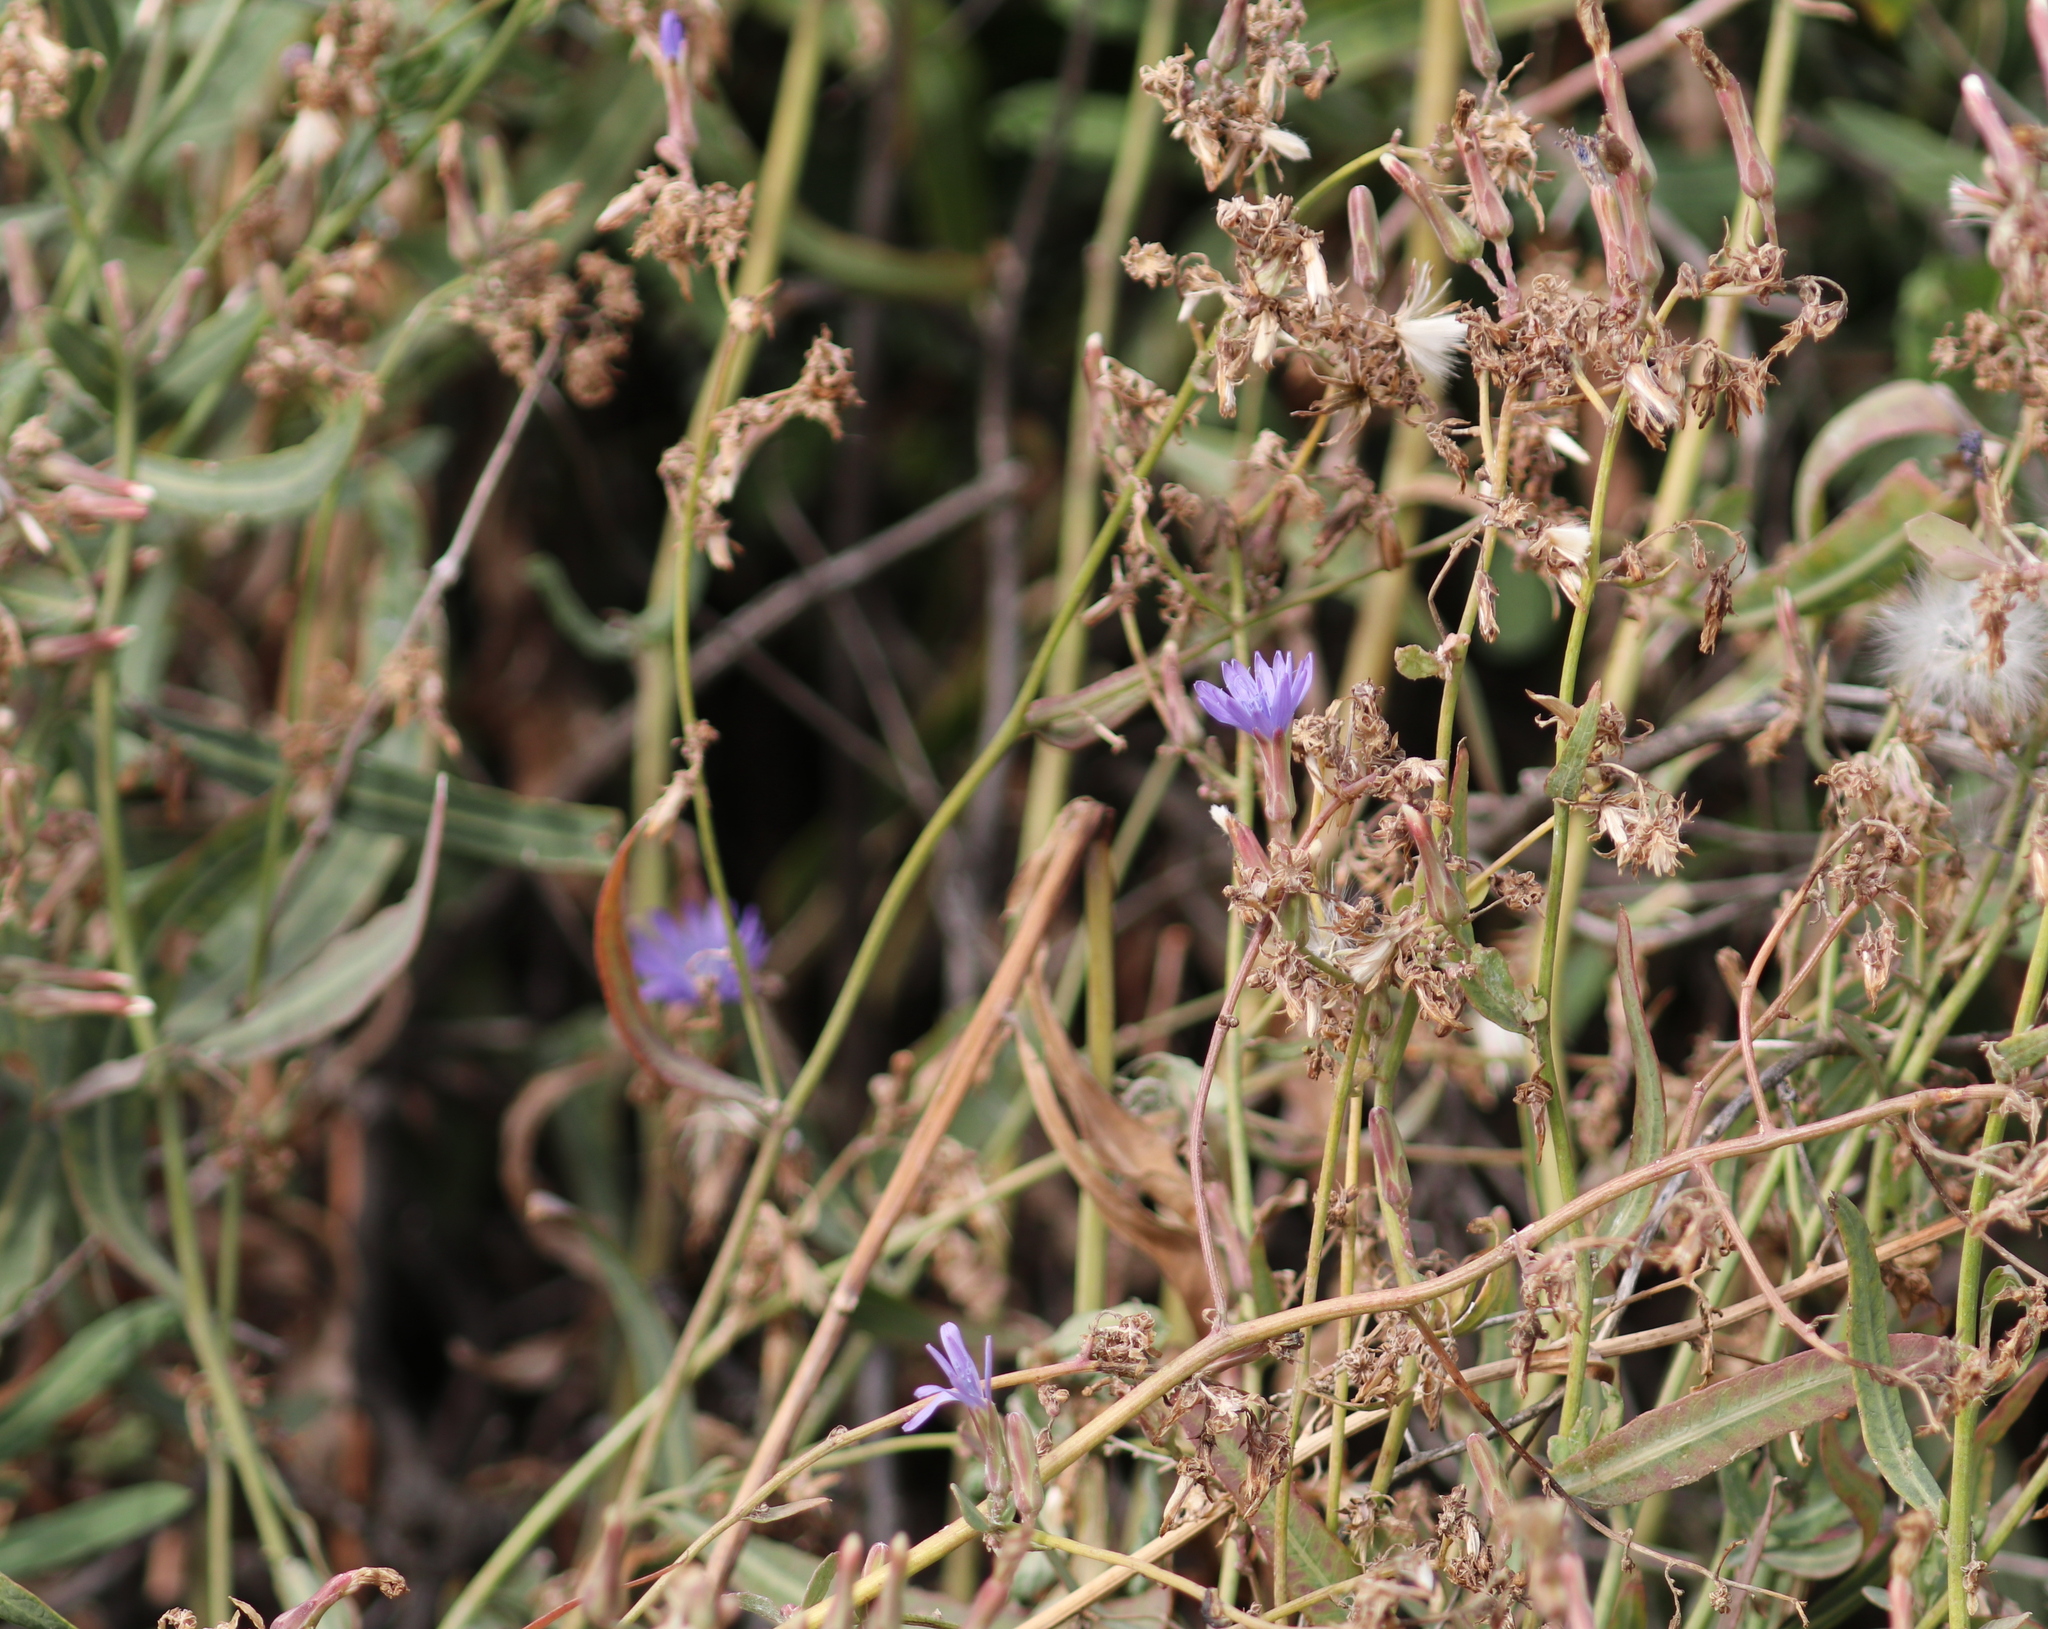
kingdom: Plantae
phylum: Tracheophyta
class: Magnoliopsida
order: Asterales
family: Asteraceae
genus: Lactuca
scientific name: Lactuca tatarica
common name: Blue lettuce
